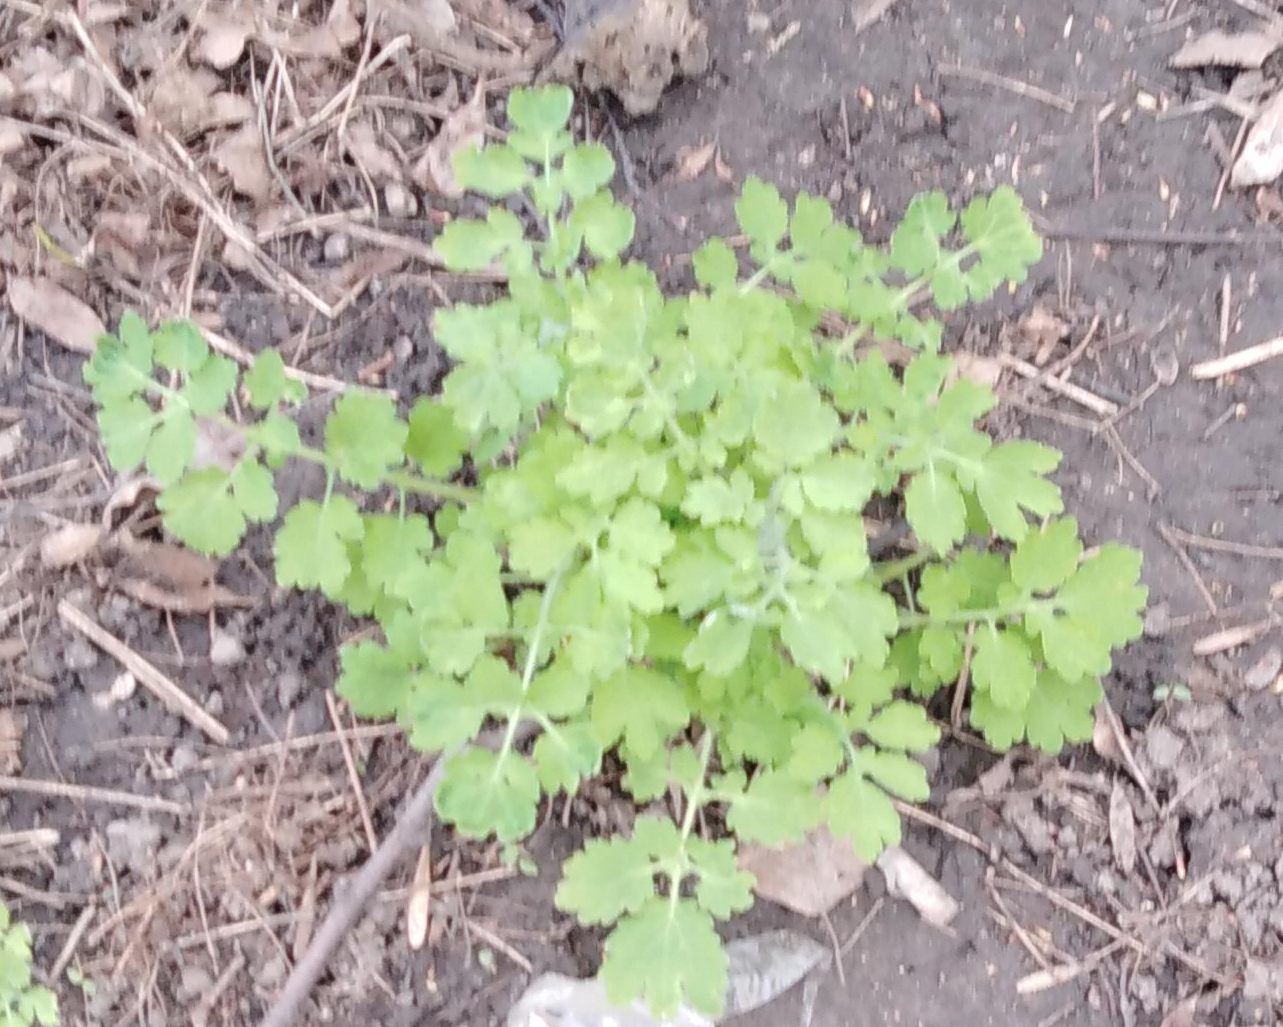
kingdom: Plantae
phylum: Tracheophyta
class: Magnoliopsida
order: Ranunculales
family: Papaveraceae
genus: Chelidonium
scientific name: Chelidonium majus
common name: Greater celandine
